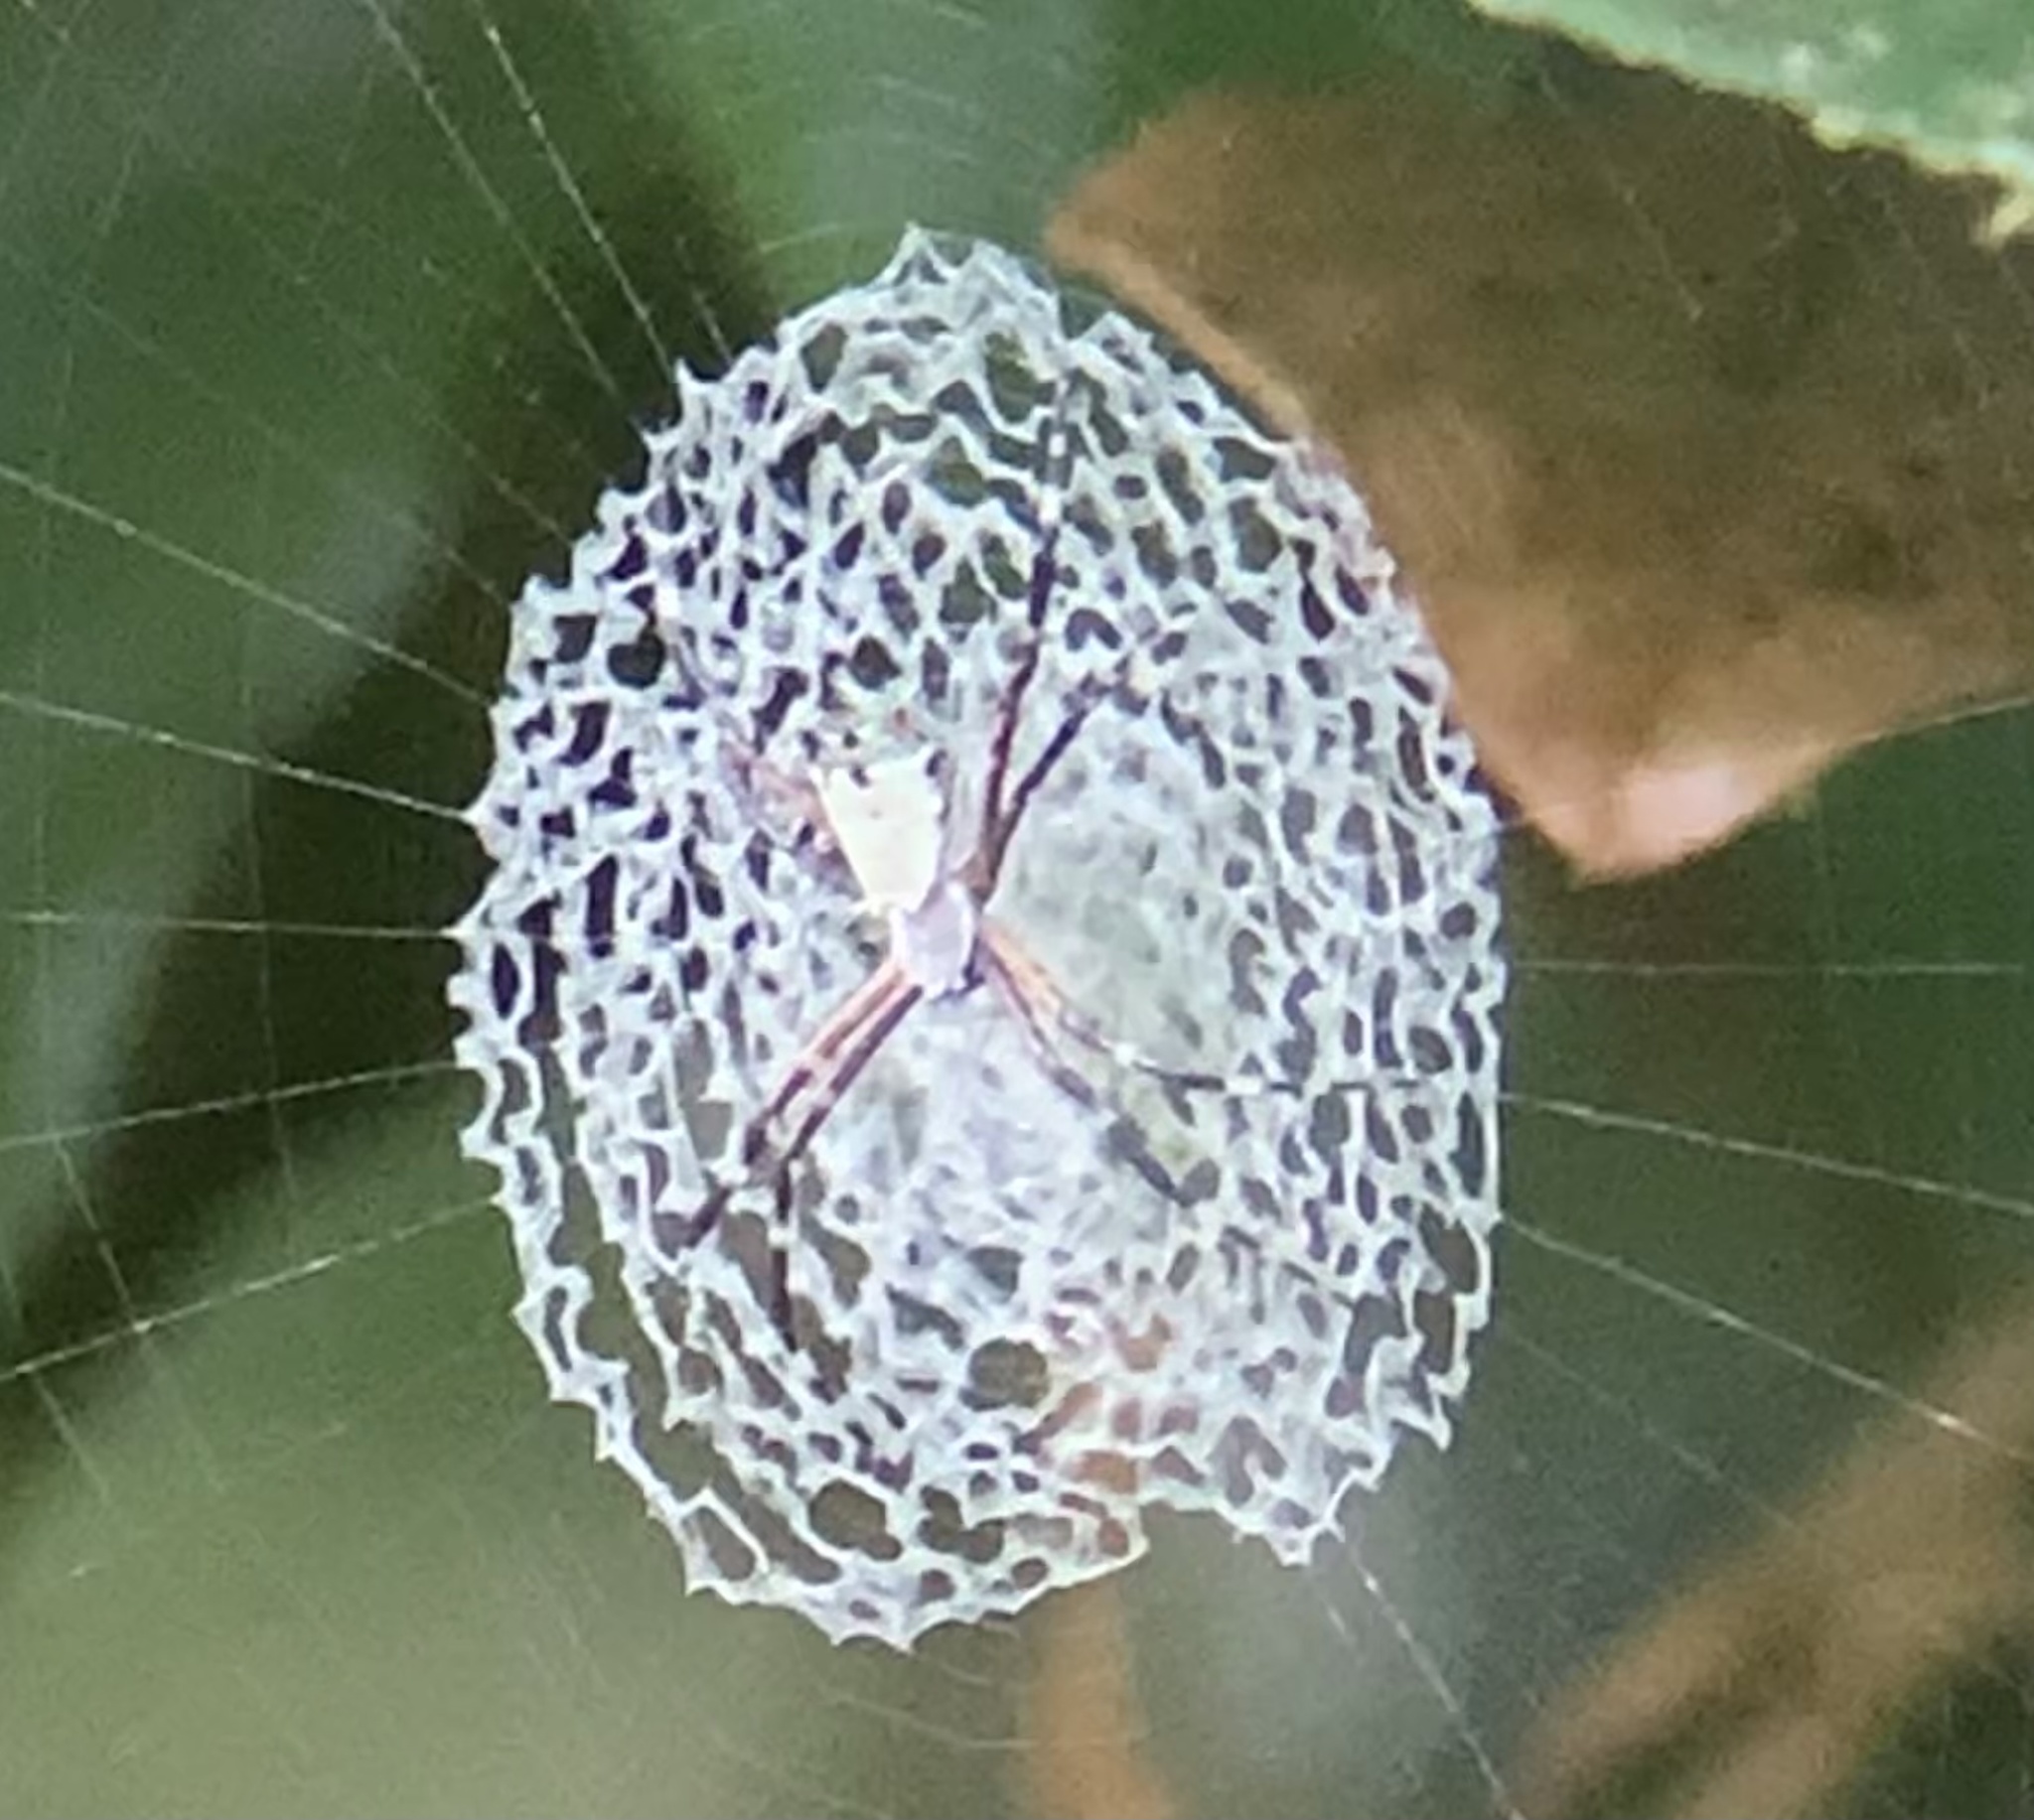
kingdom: Animalia
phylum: Arthropoda
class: Arachnida
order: Araneae
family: Araneidae
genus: Argiope
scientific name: Argiope submaronica
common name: Orb weavers
